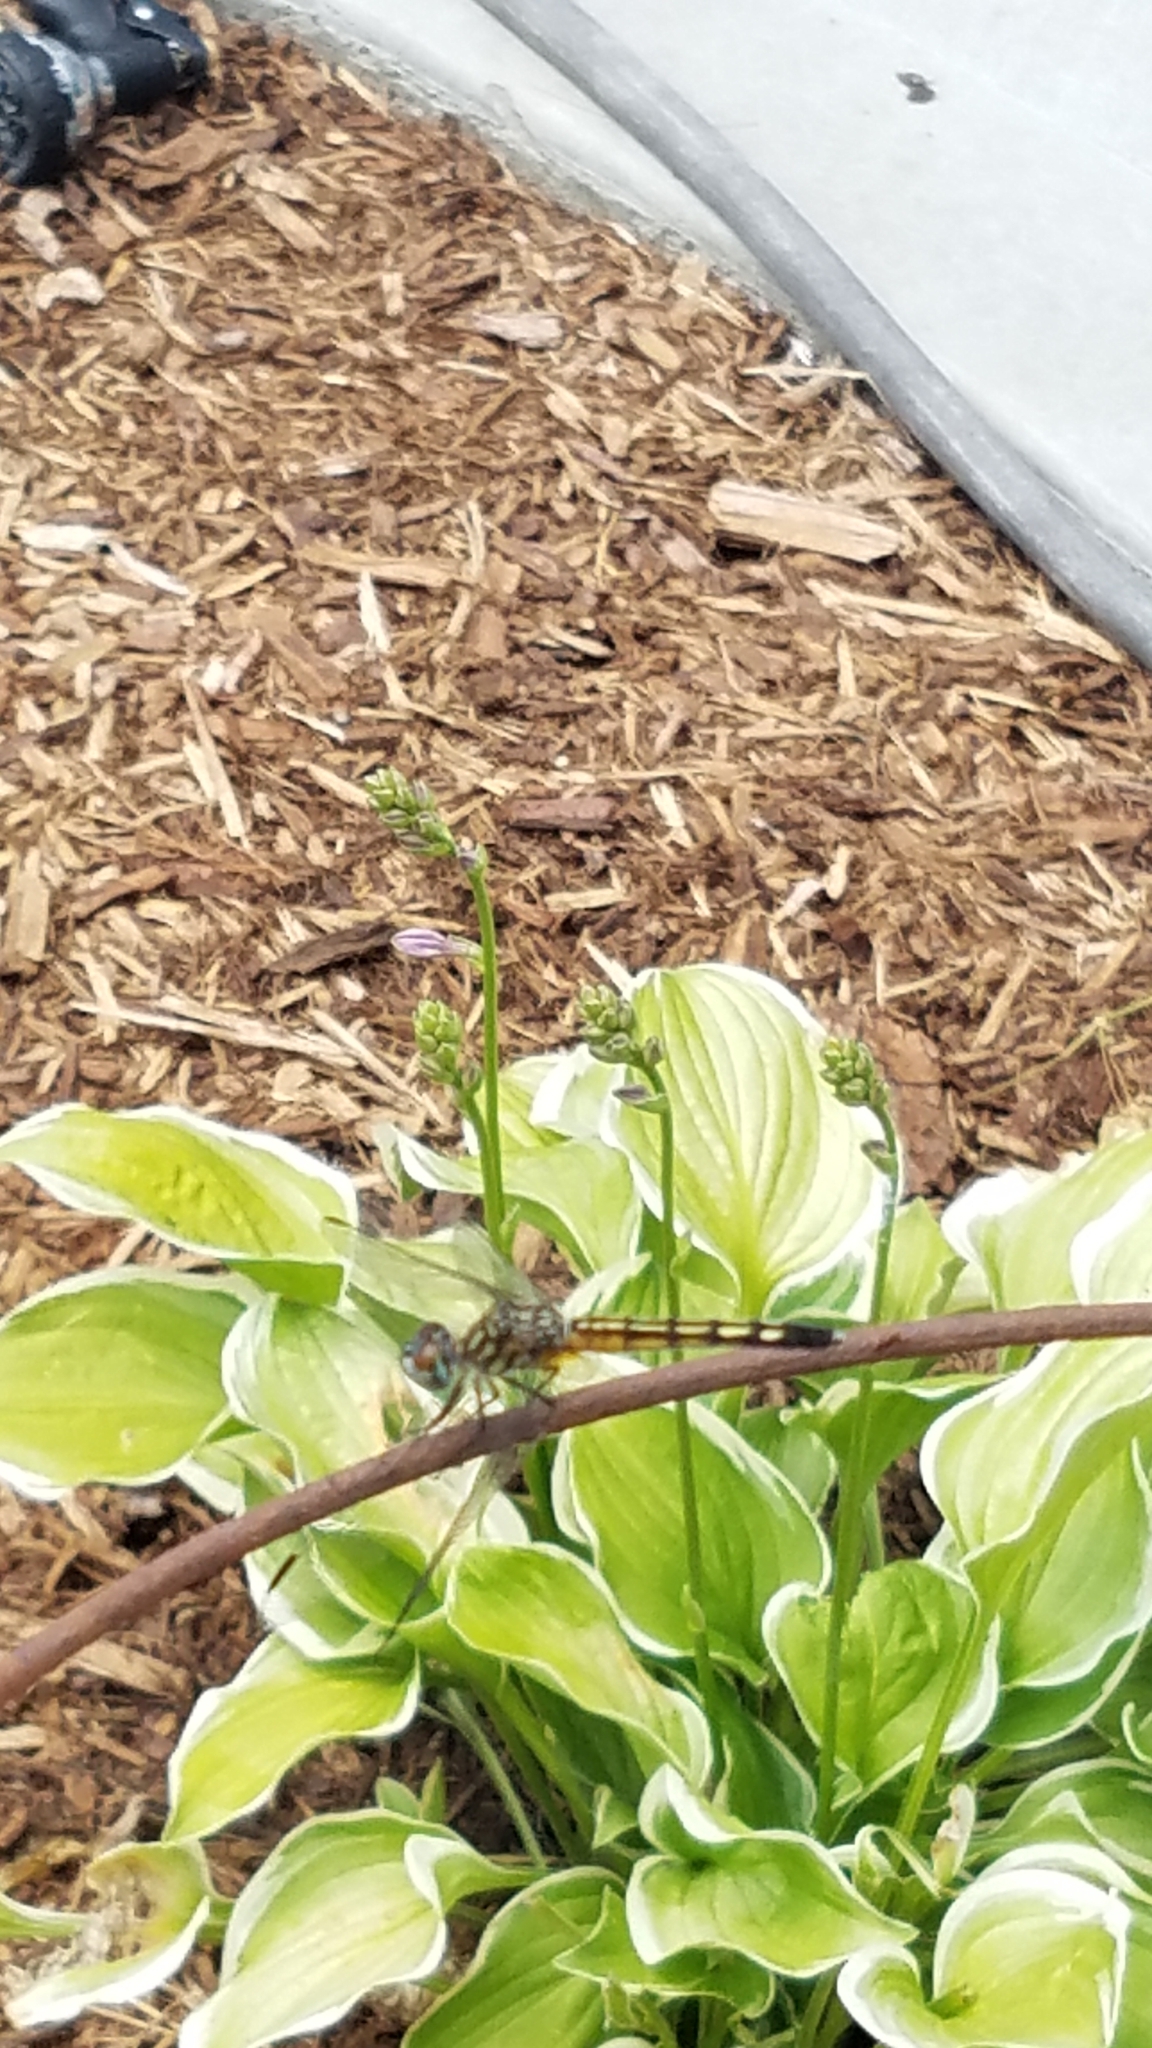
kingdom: Animalia
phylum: Arthropoda
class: Insecta
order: Odonata
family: Libellulidae
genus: Pachydiplax
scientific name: Pachydiplax longipennis
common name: Blue dasher
